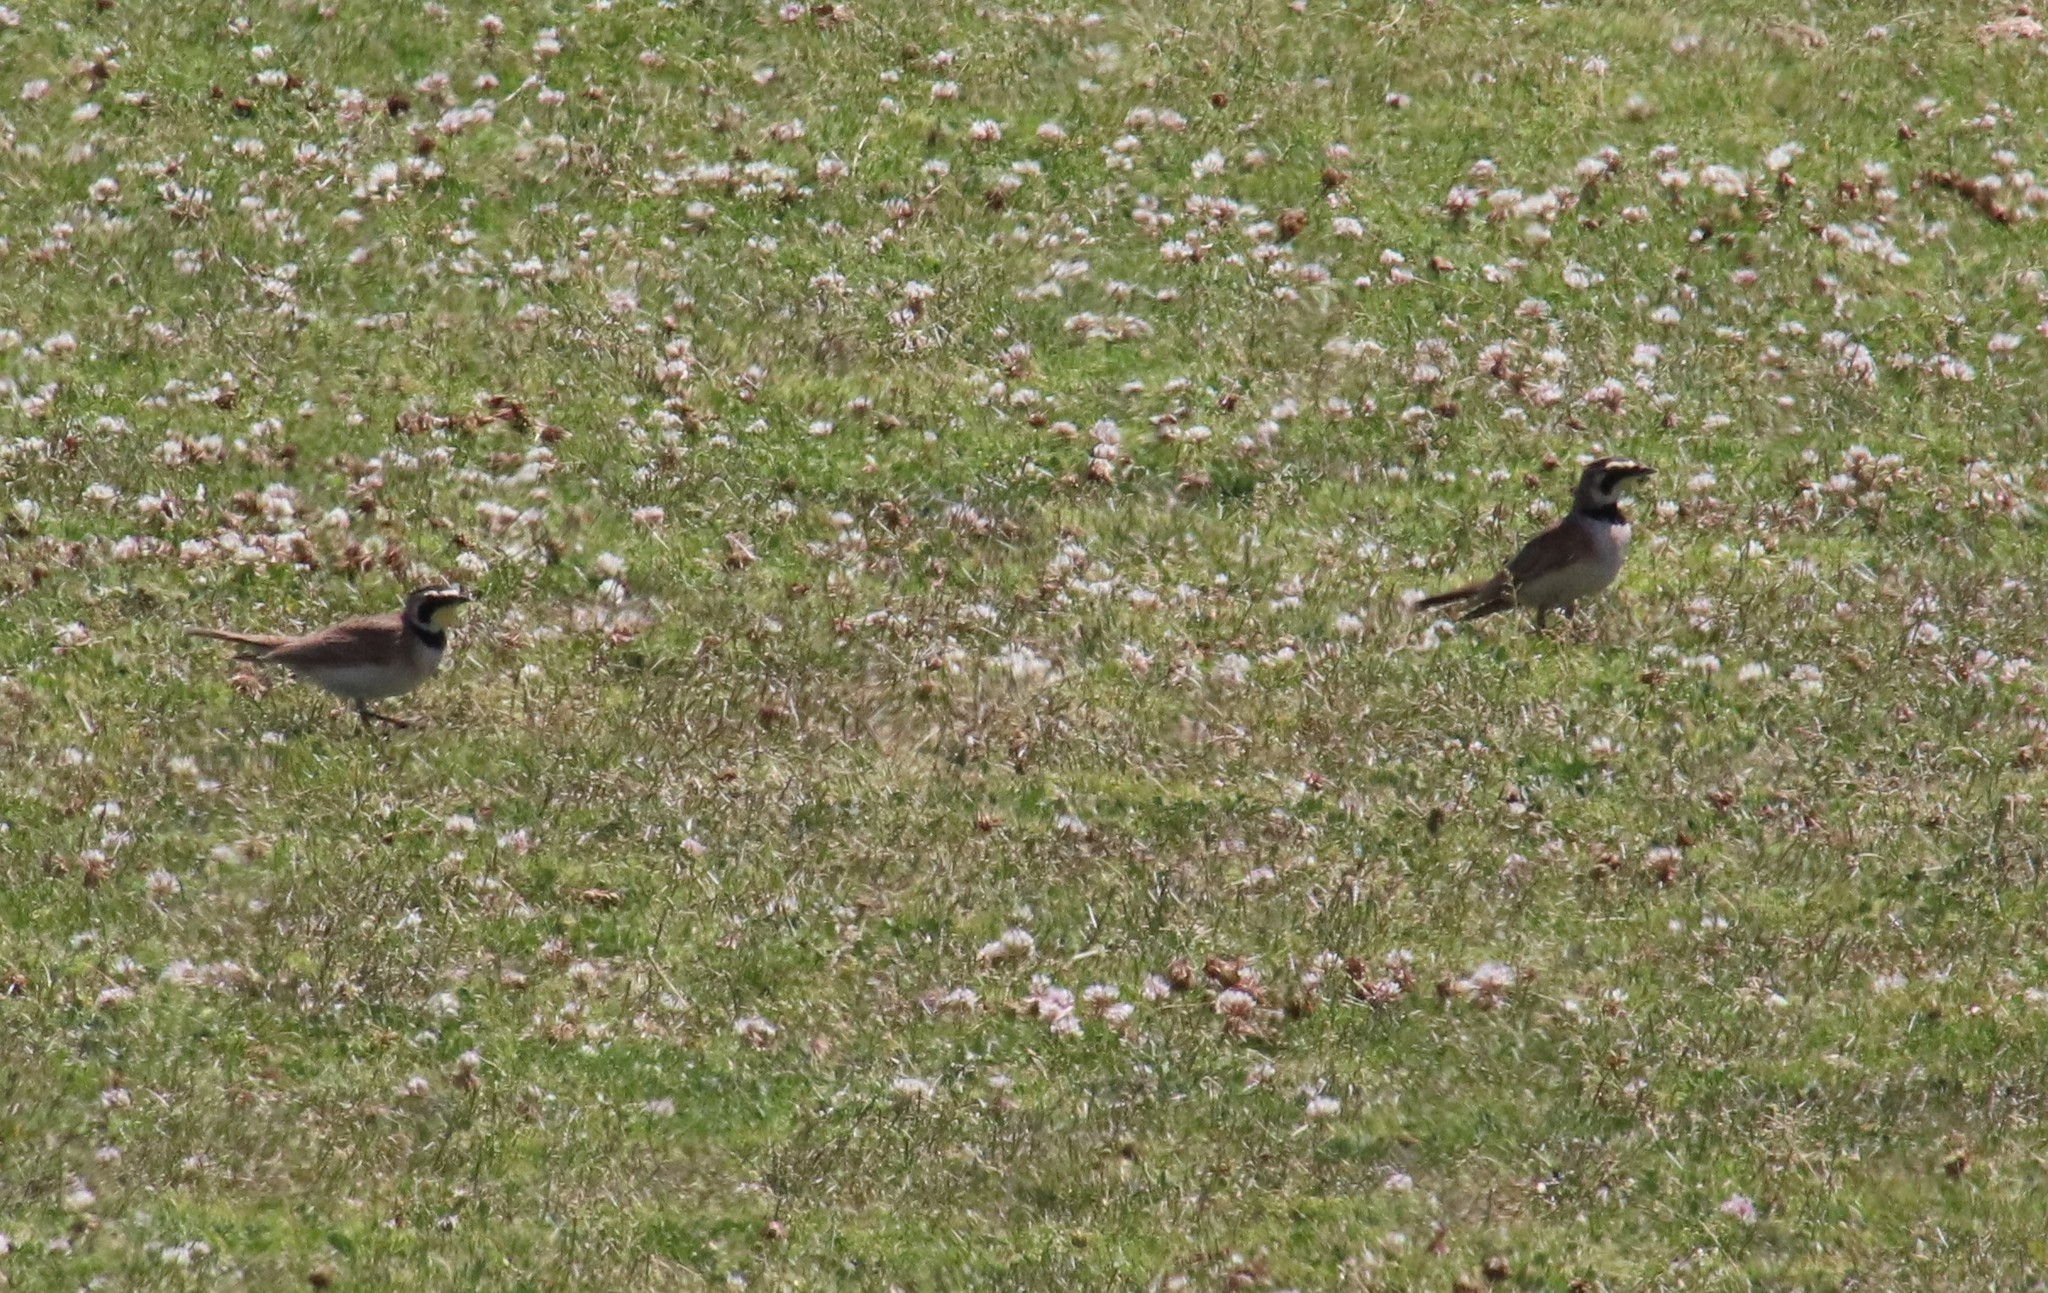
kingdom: Animalia
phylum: Chordata
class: Aves
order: Passeriformes
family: Alaudidae
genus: Eremophila
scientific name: Eremophila alpestris
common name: Horned lark
